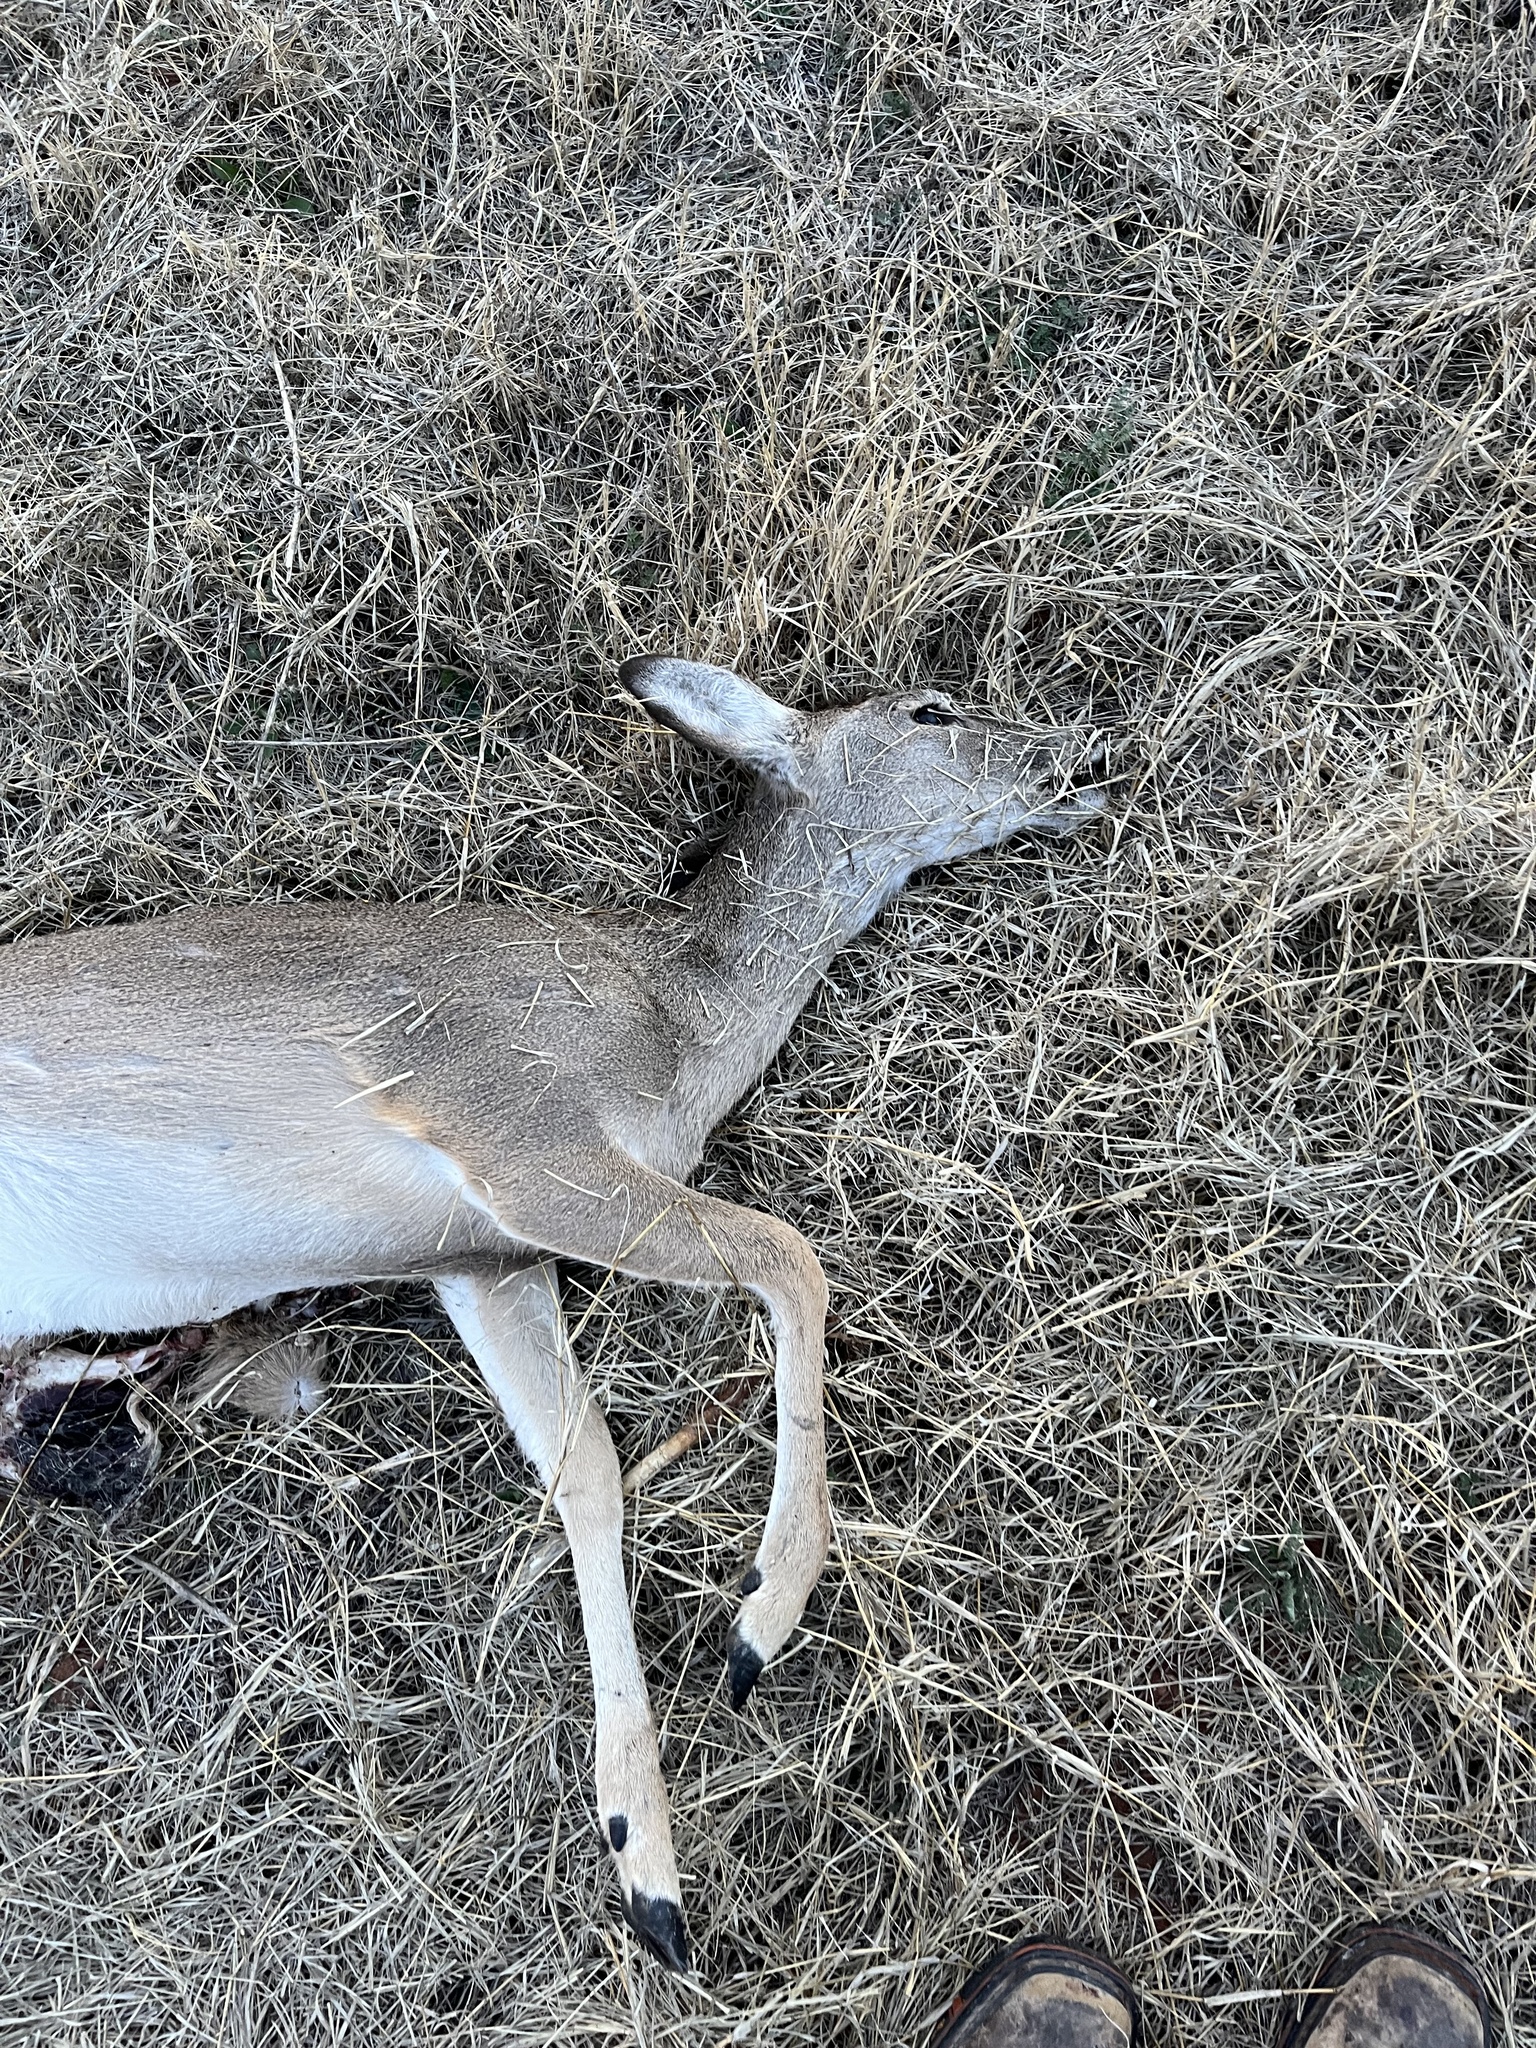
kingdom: Animalia
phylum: Chordata
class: Mammalia
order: Artiodactyla
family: Cervidae
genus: Odocoileus
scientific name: Odocoileus virginianus
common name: White-tailed deer
